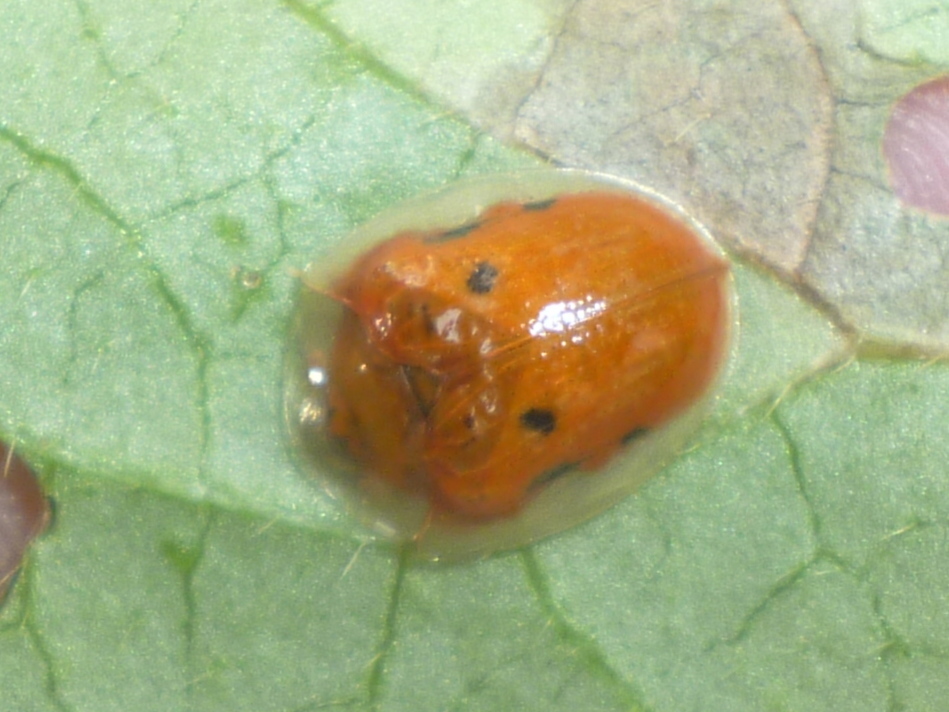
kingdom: Animalia
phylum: Arthropoda
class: Insecta
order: Coleoptera
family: Chrysomelidae
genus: Charidotella
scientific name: Charidotella sexpunctata
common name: Golden tortoise beetle
